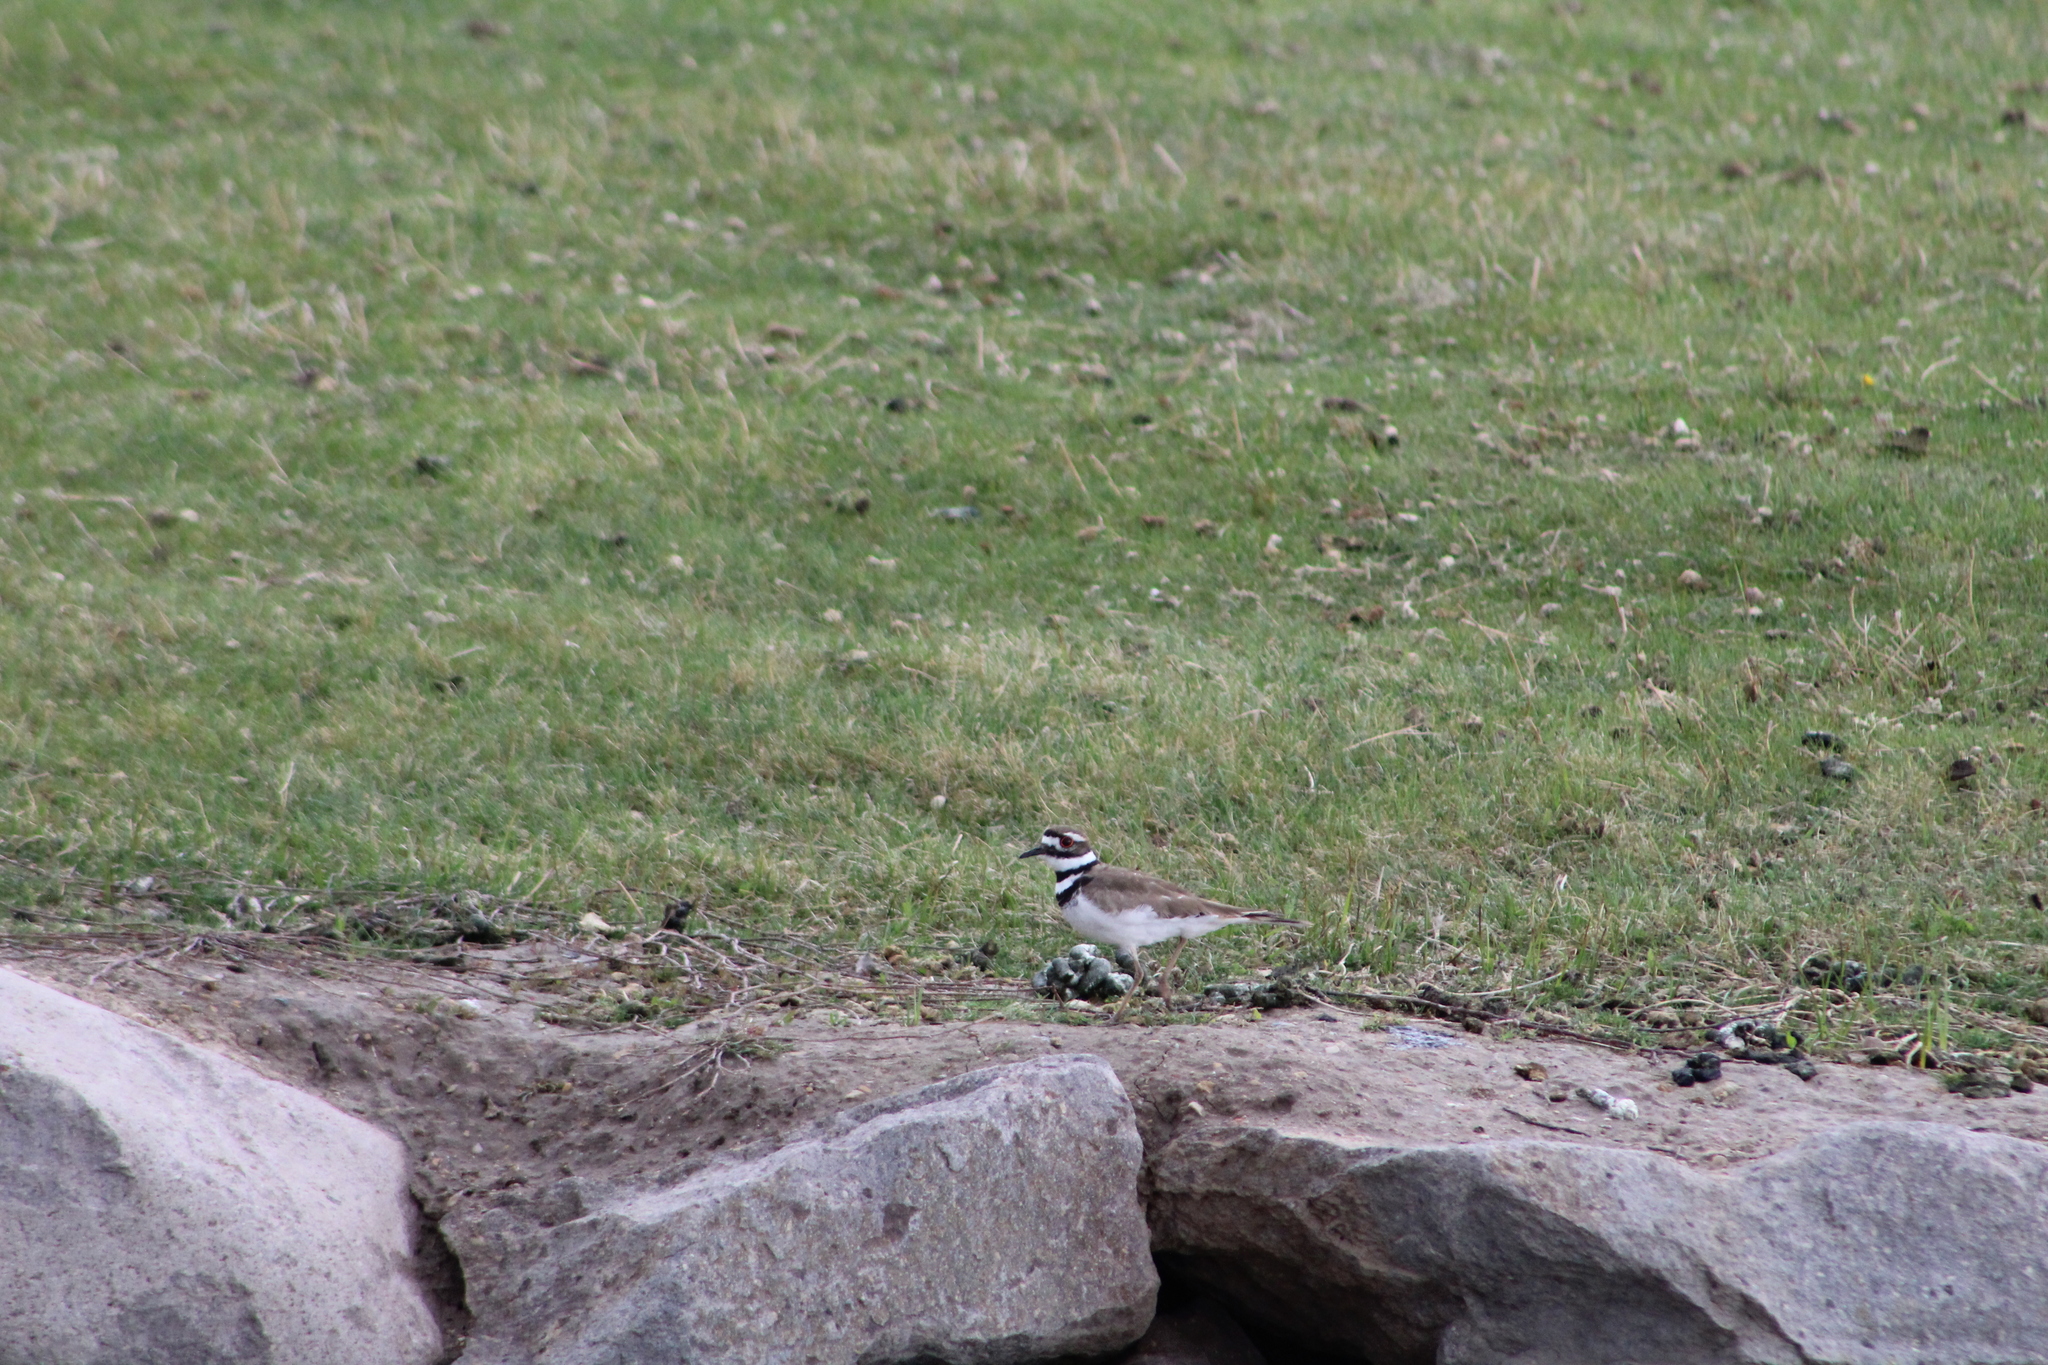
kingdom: Animalia
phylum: Chordata
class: Aves
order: Charadriiformes
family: Charadriidae
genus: Charadrius
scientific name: Charadrius vociferus
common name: Killdeer
